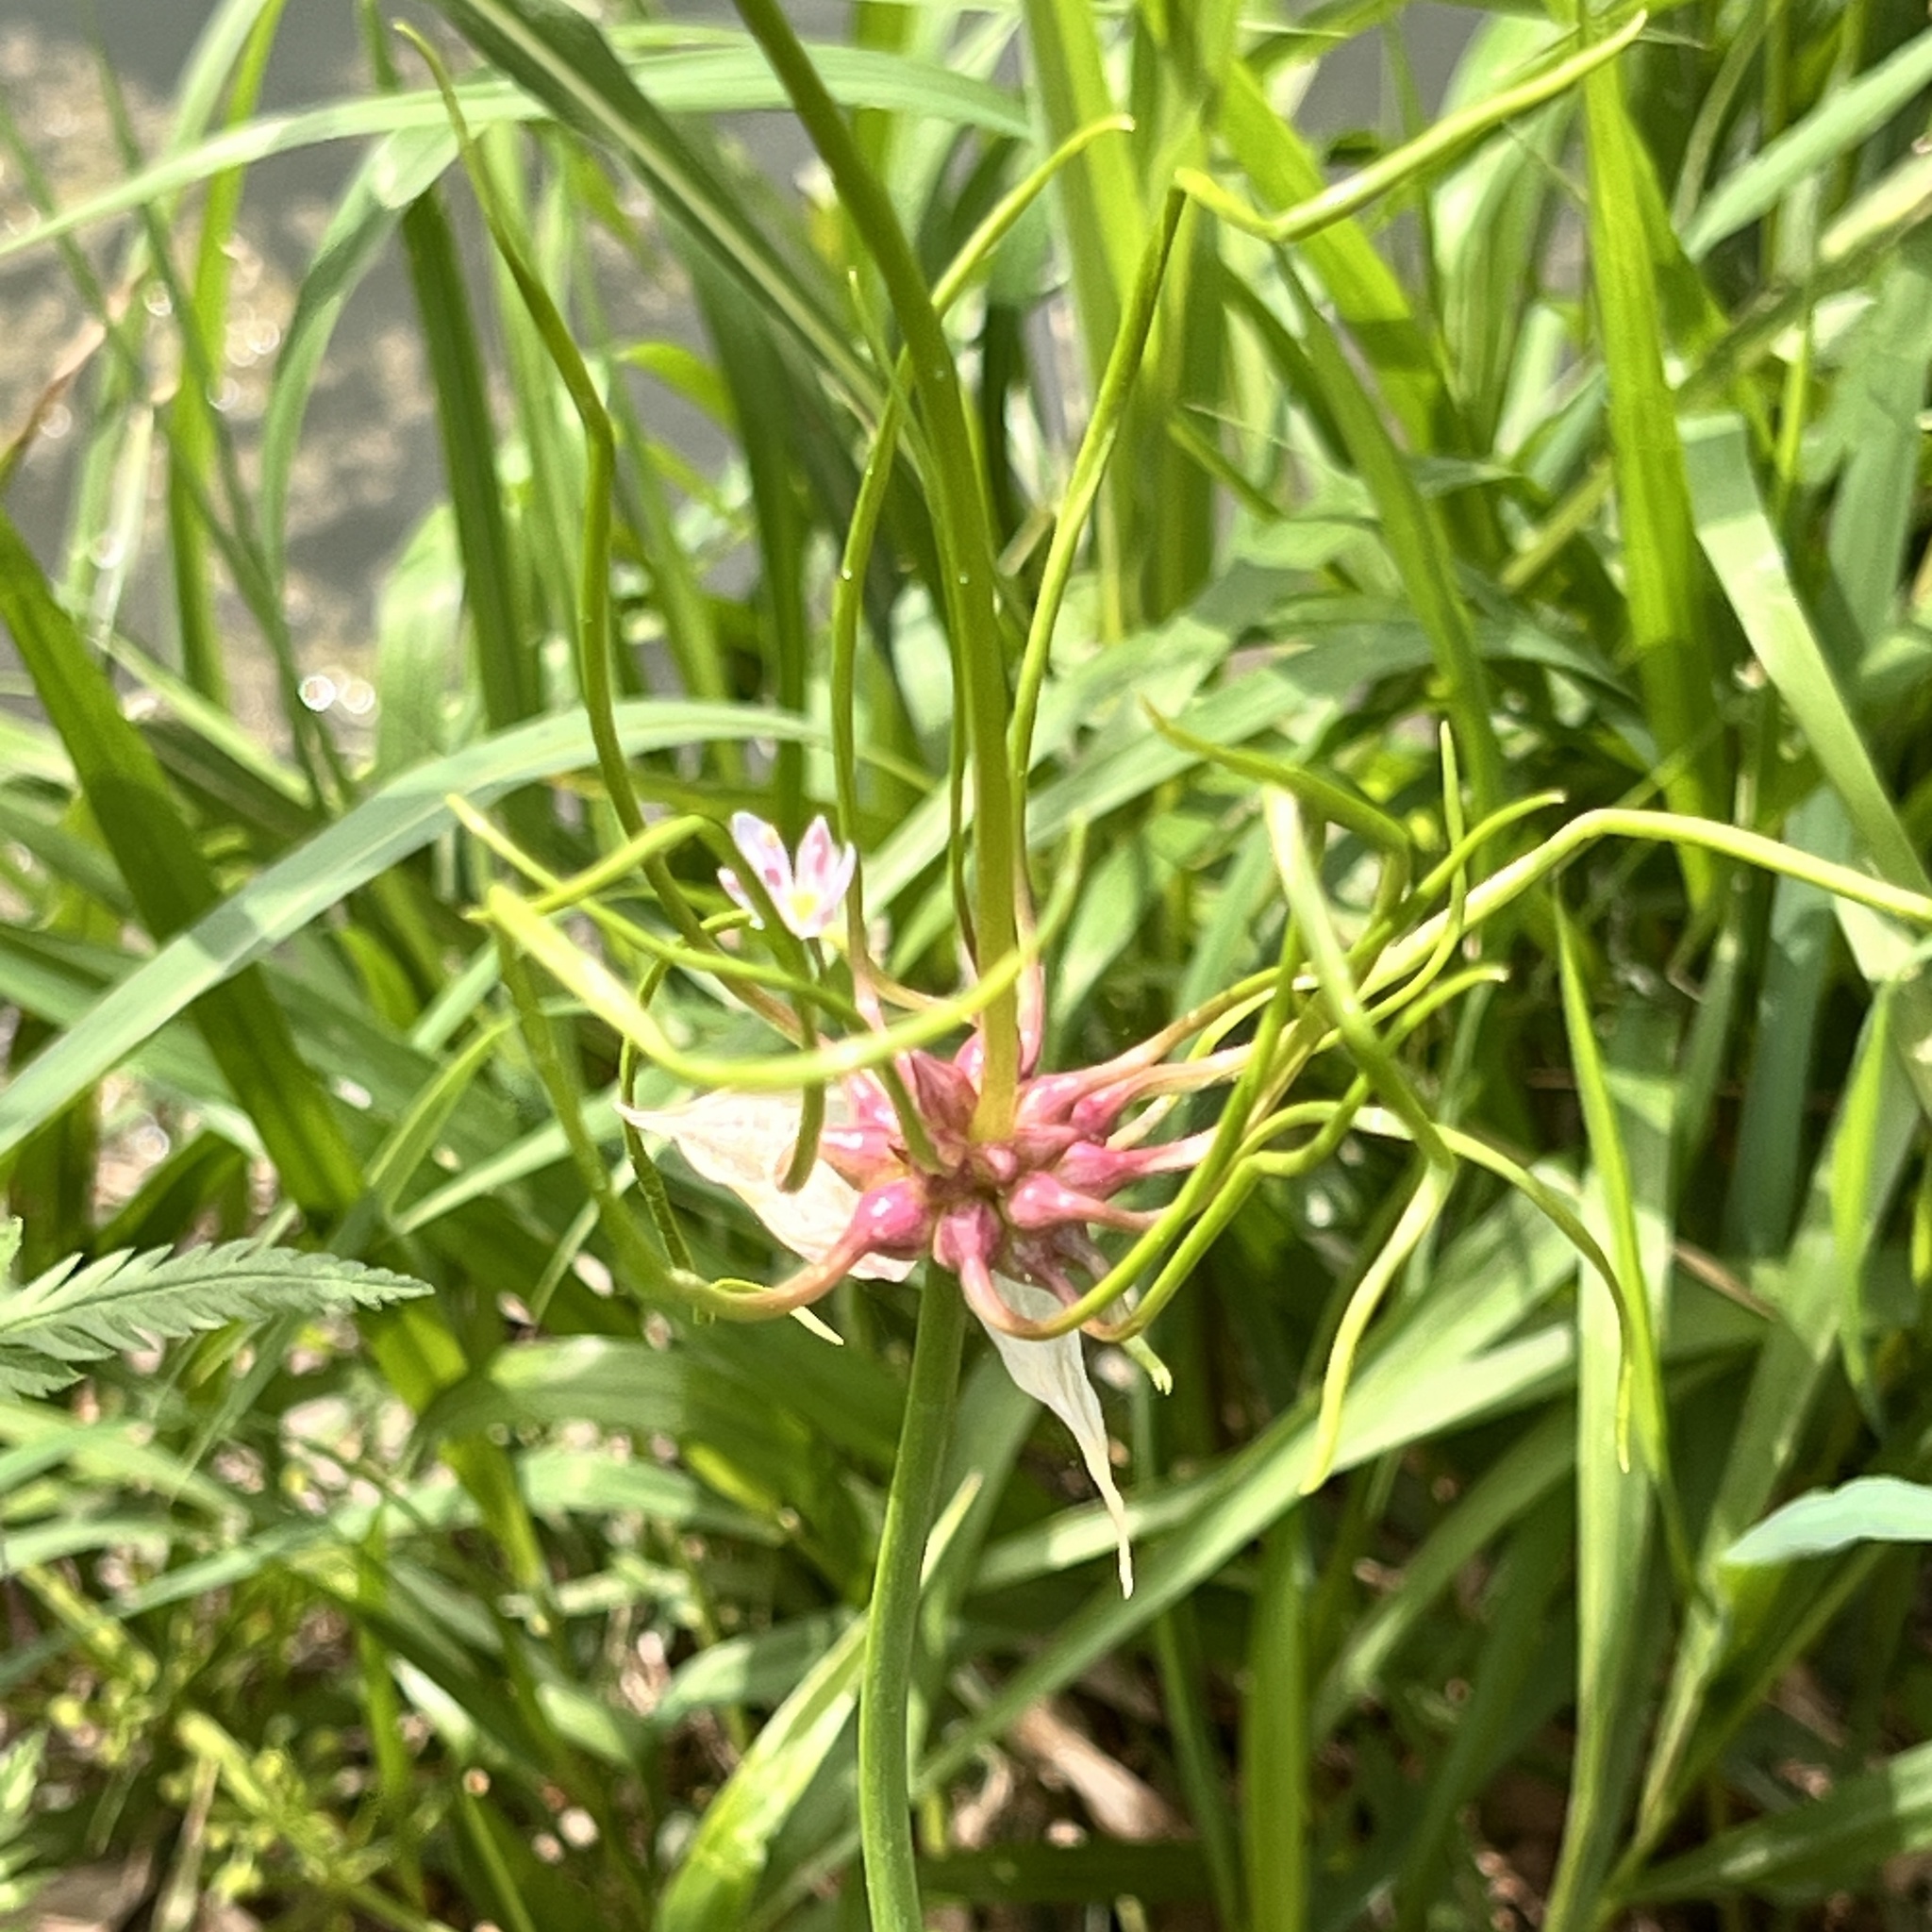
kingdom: Plantae
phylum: Tracheophyta
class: Liliopsida
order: Asparagales
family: Amaryllidaceae
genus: Allium
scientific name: Allium canadense
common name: Meadow garlic
